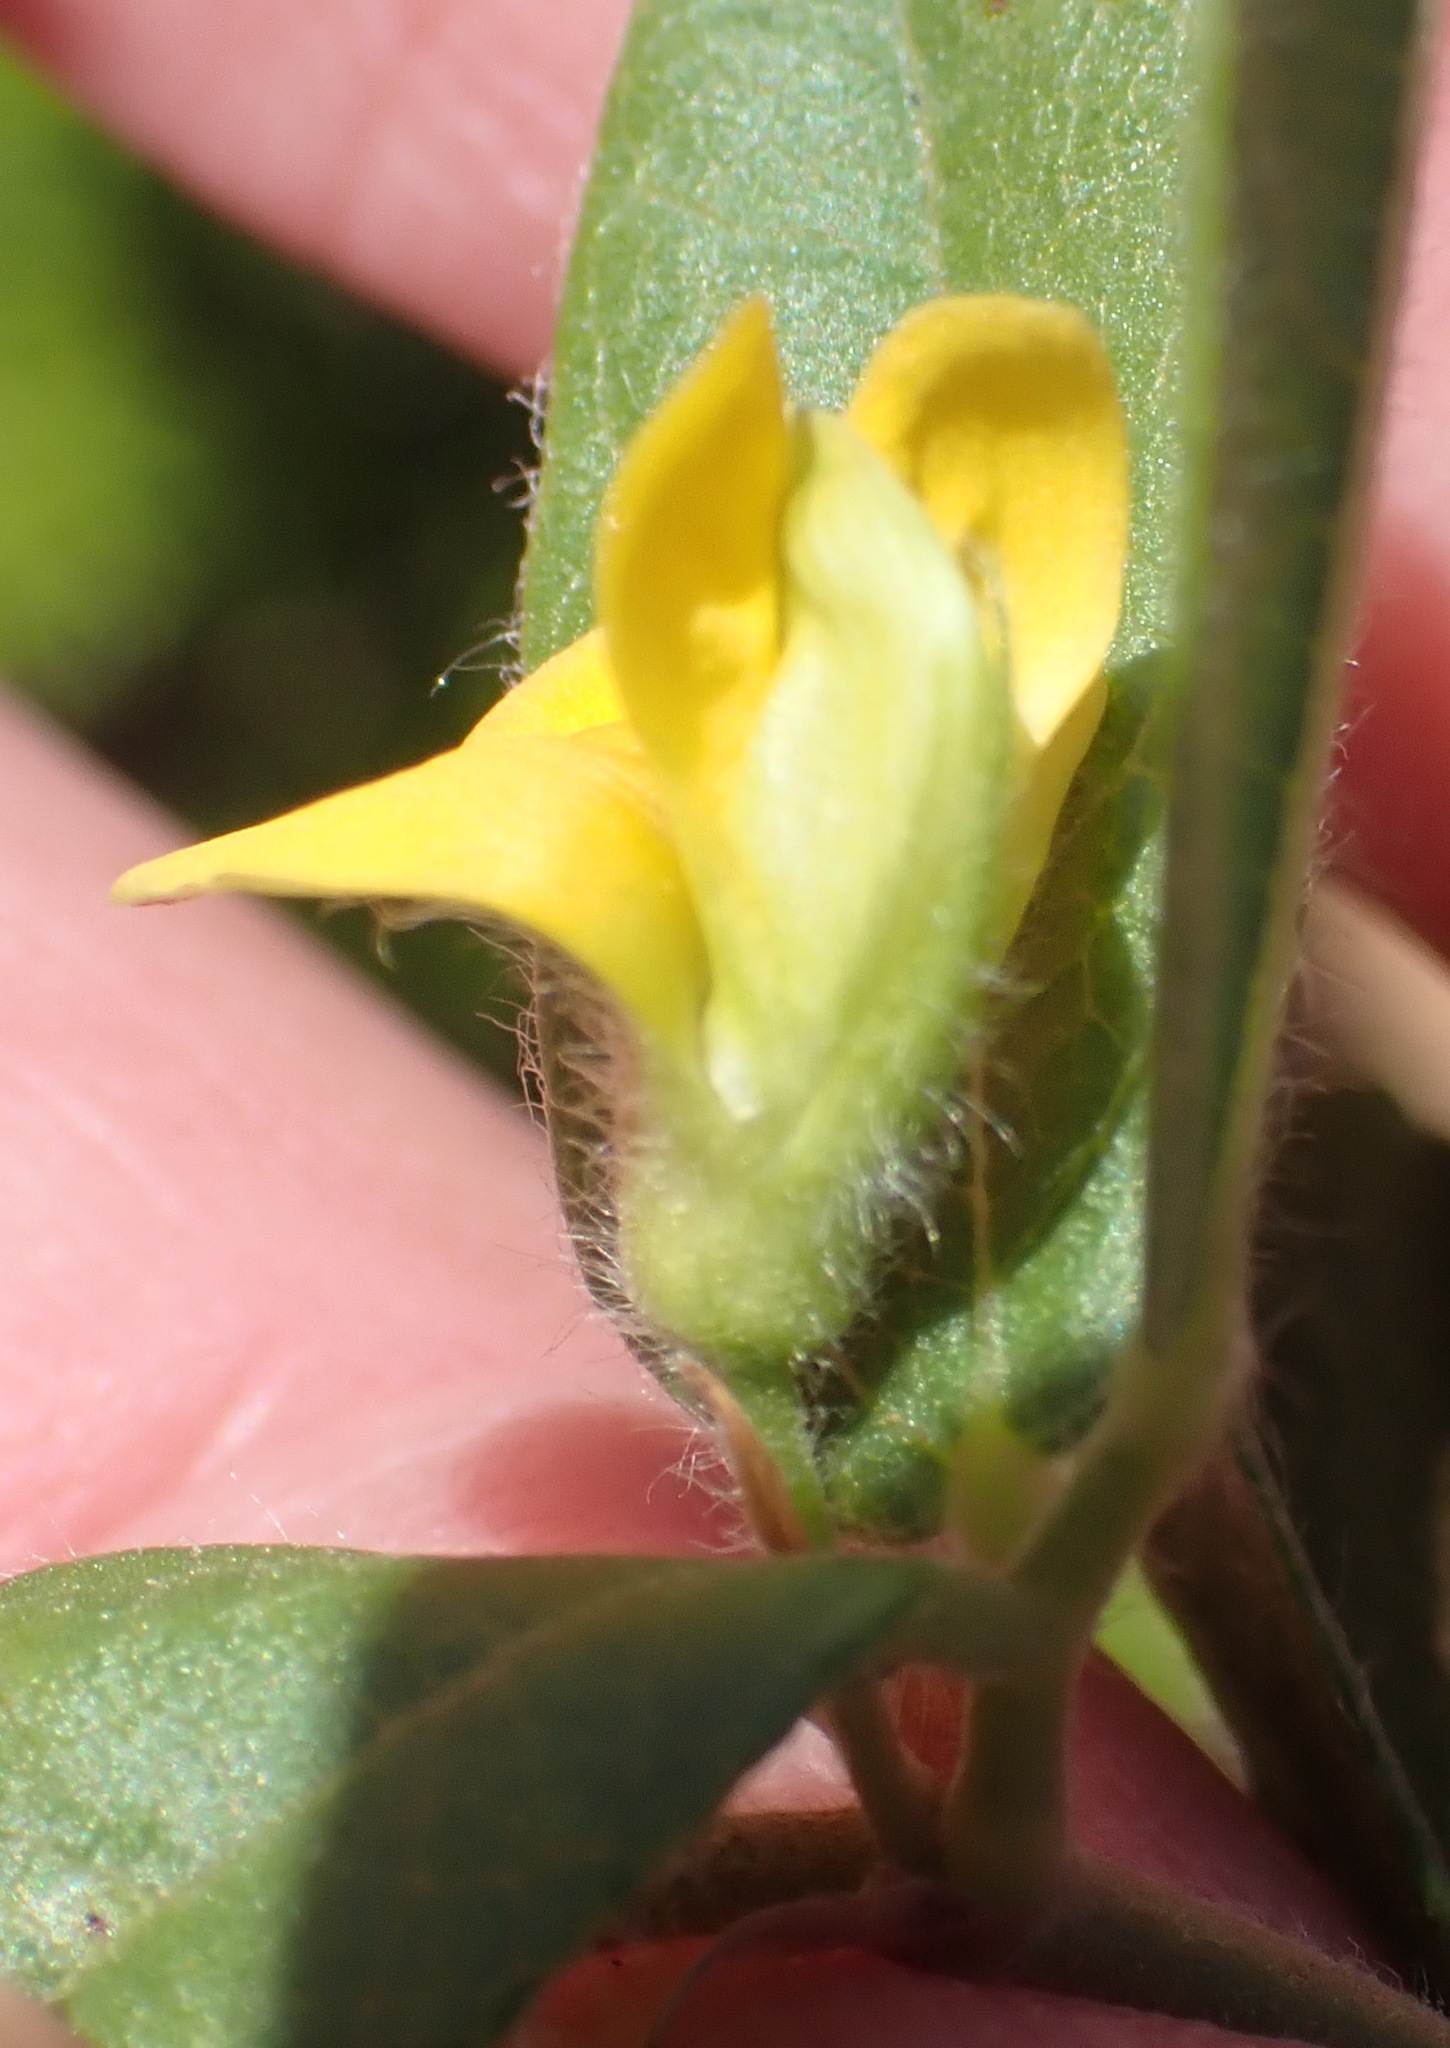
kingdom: Plantae
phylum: Tracheophyta
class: Magnoliopsida
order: Fabales
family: Fabaceae
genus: Rhynchosia
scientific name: Rhynchosia ciliata
